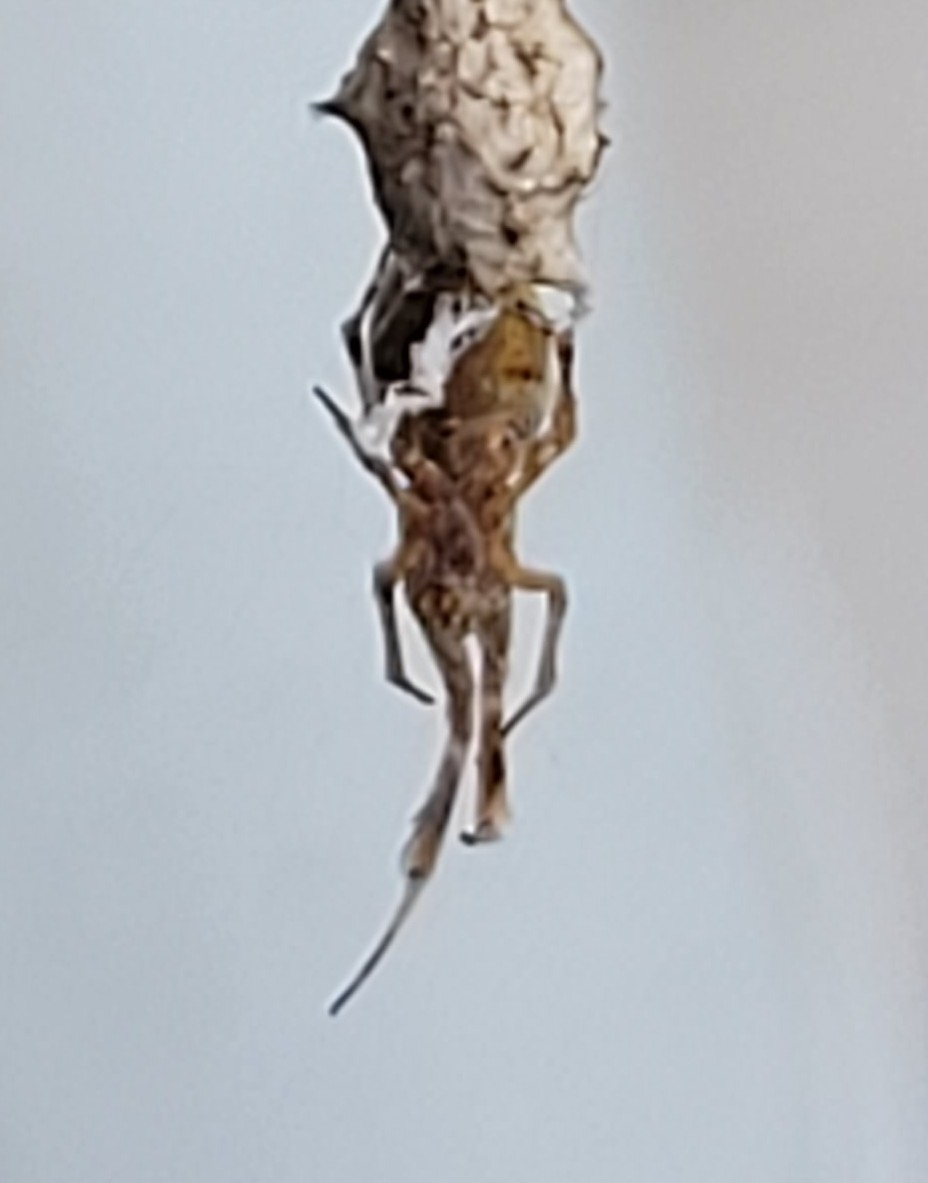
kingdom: Animalia
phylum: Arthropoda
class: Arachnida
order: Araneae
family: Uloboridae
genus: Uloborus
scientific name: Uloborus glomosus
